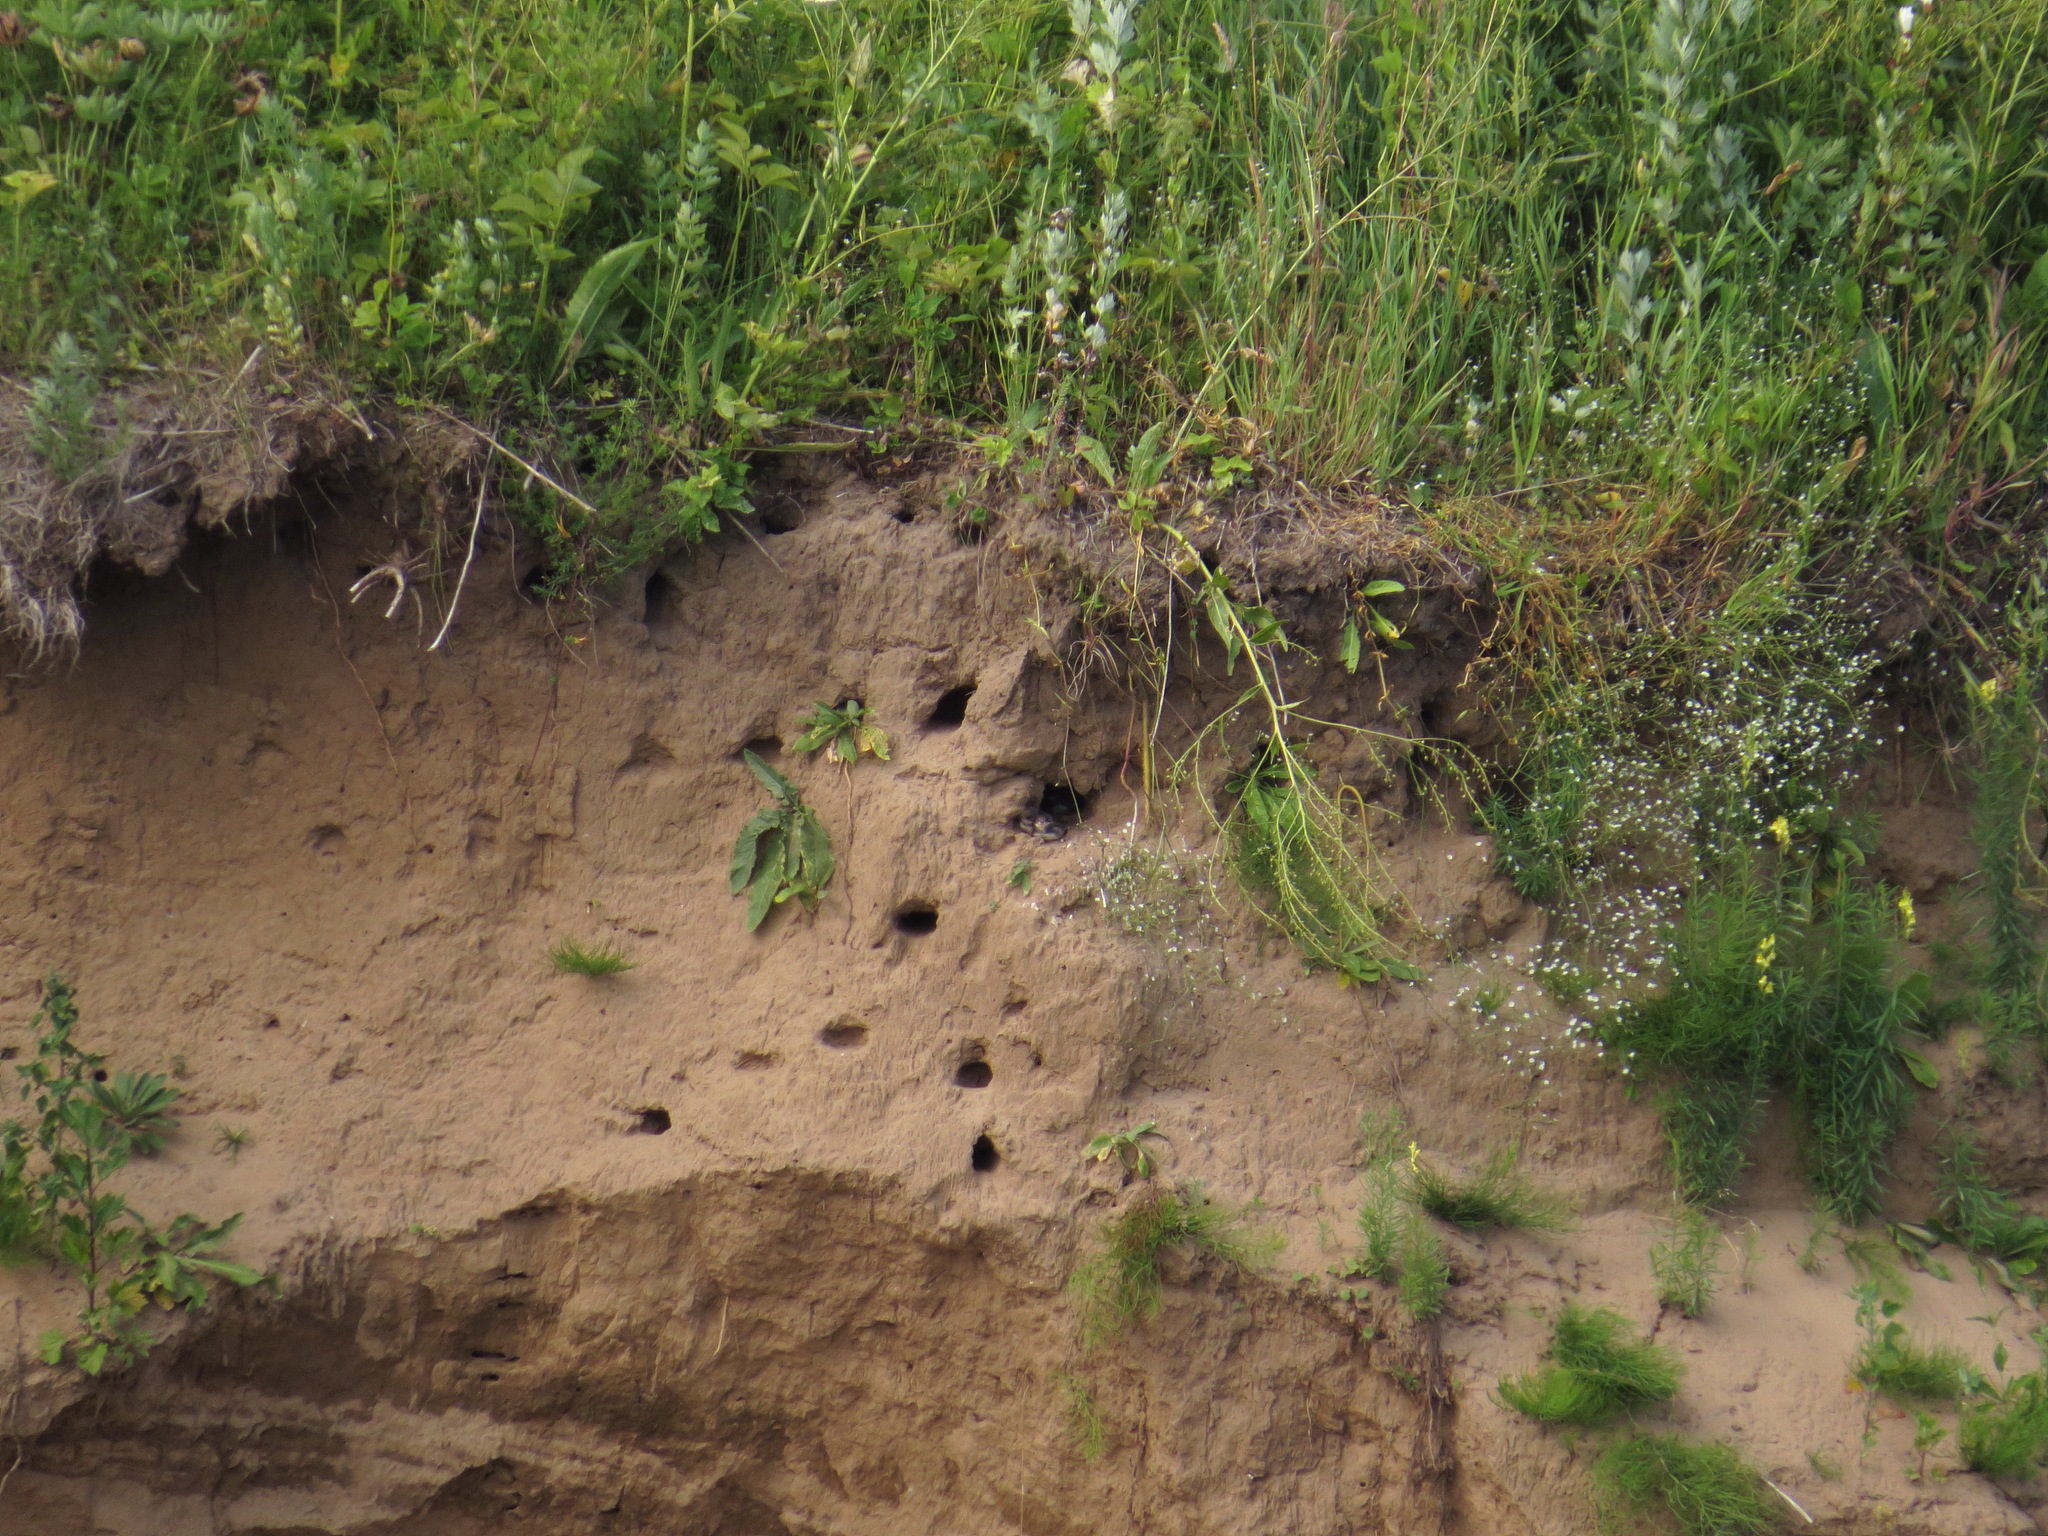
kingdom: Animalia
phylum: Chordata
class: Aves
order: Passeriformes
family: Hirundinidae
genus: Riparia
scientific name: Riparia riparia
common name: Sand martin
